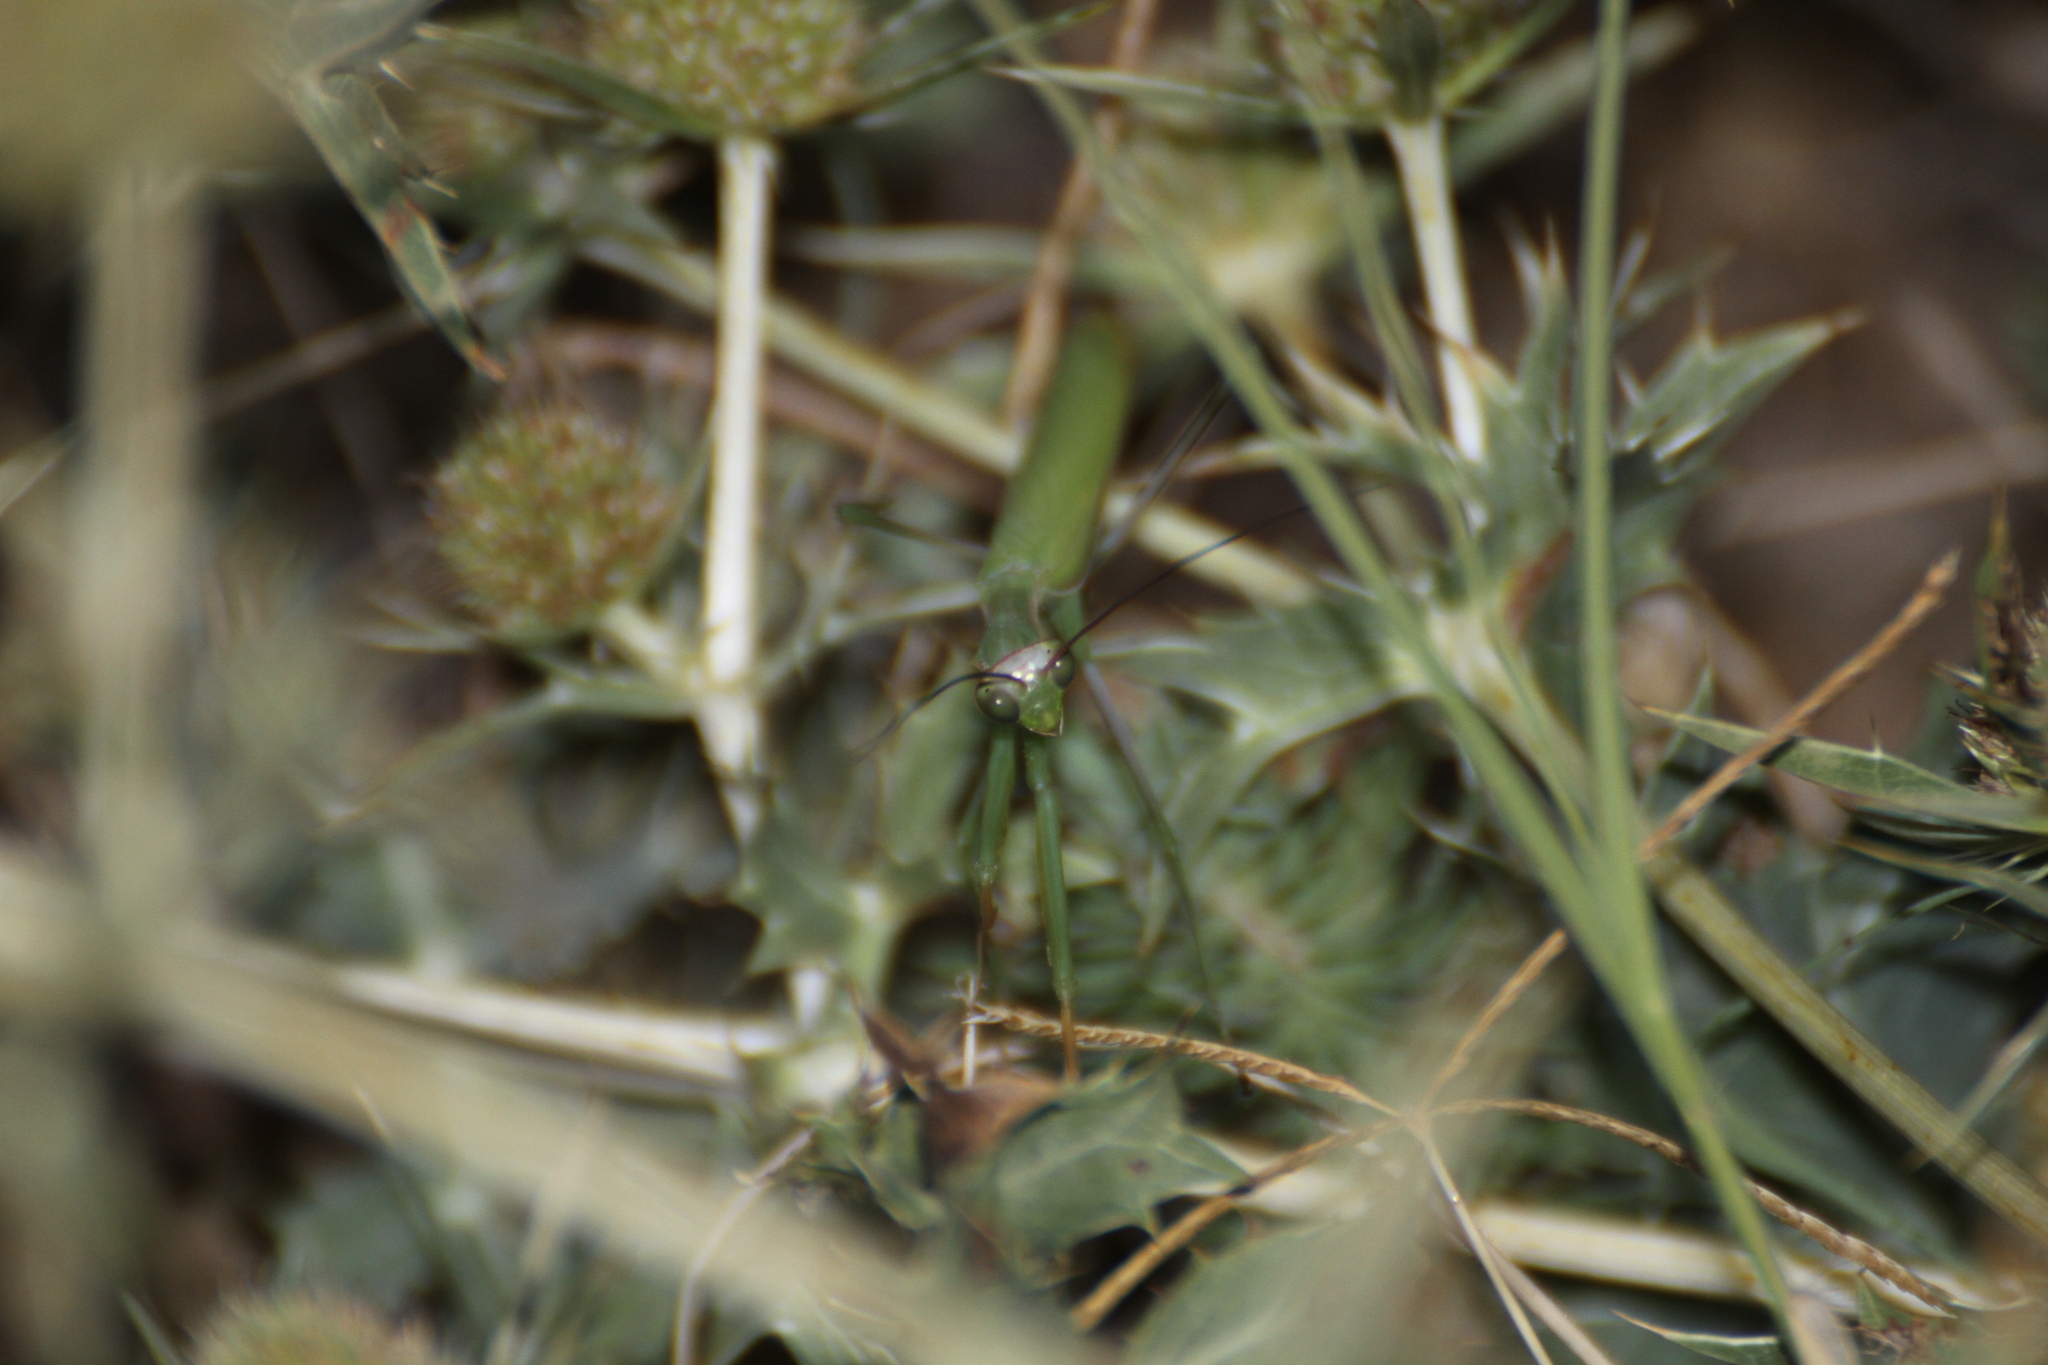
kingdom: Animalia
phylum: Arthropoda
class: Insecta
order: Mantodea
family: Mantidae
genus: Mantis
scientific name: Mantis religiosa
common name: Praying mantis
